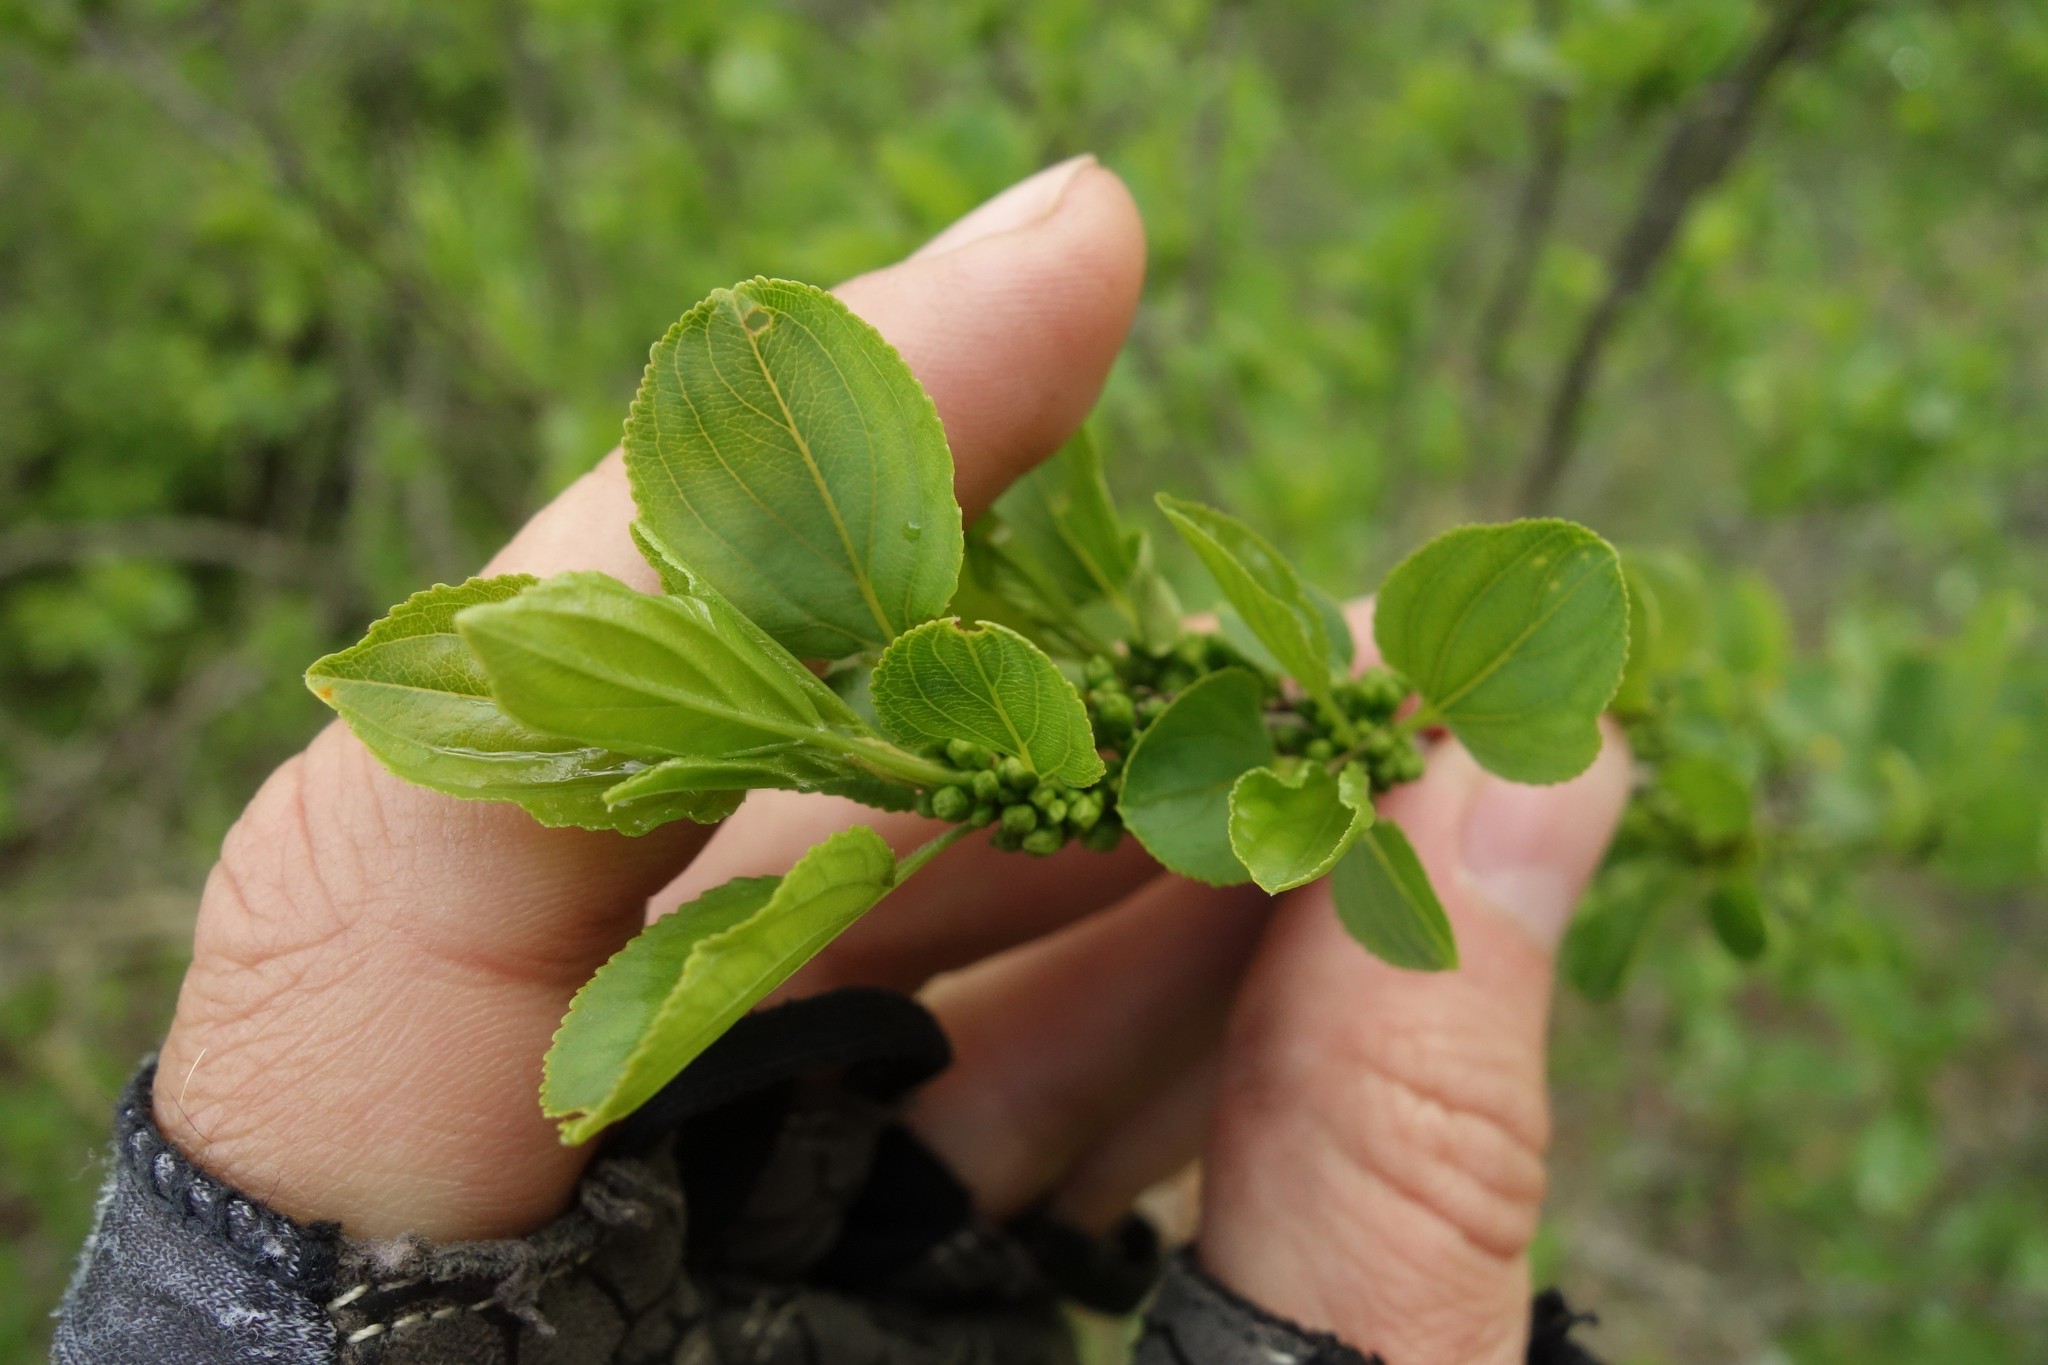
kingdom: Plantae
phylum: Tracheophyta
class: Magnoliopsida
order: Rosales
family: Rhamnaceae
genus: Rhamnus
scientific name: Rhamnus cathartica
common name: Common buckthorn
